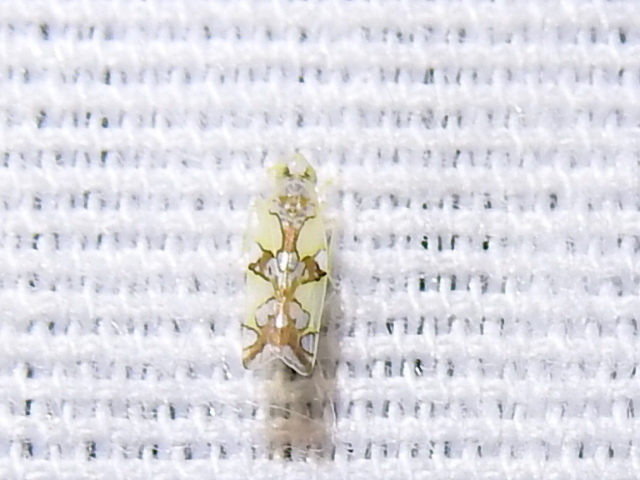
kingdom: Animalia
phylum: Arthropoda
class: Insecta
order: Hemiptera
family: Cicadellidae
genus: Protalebrella
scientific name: Protalebrella conica
